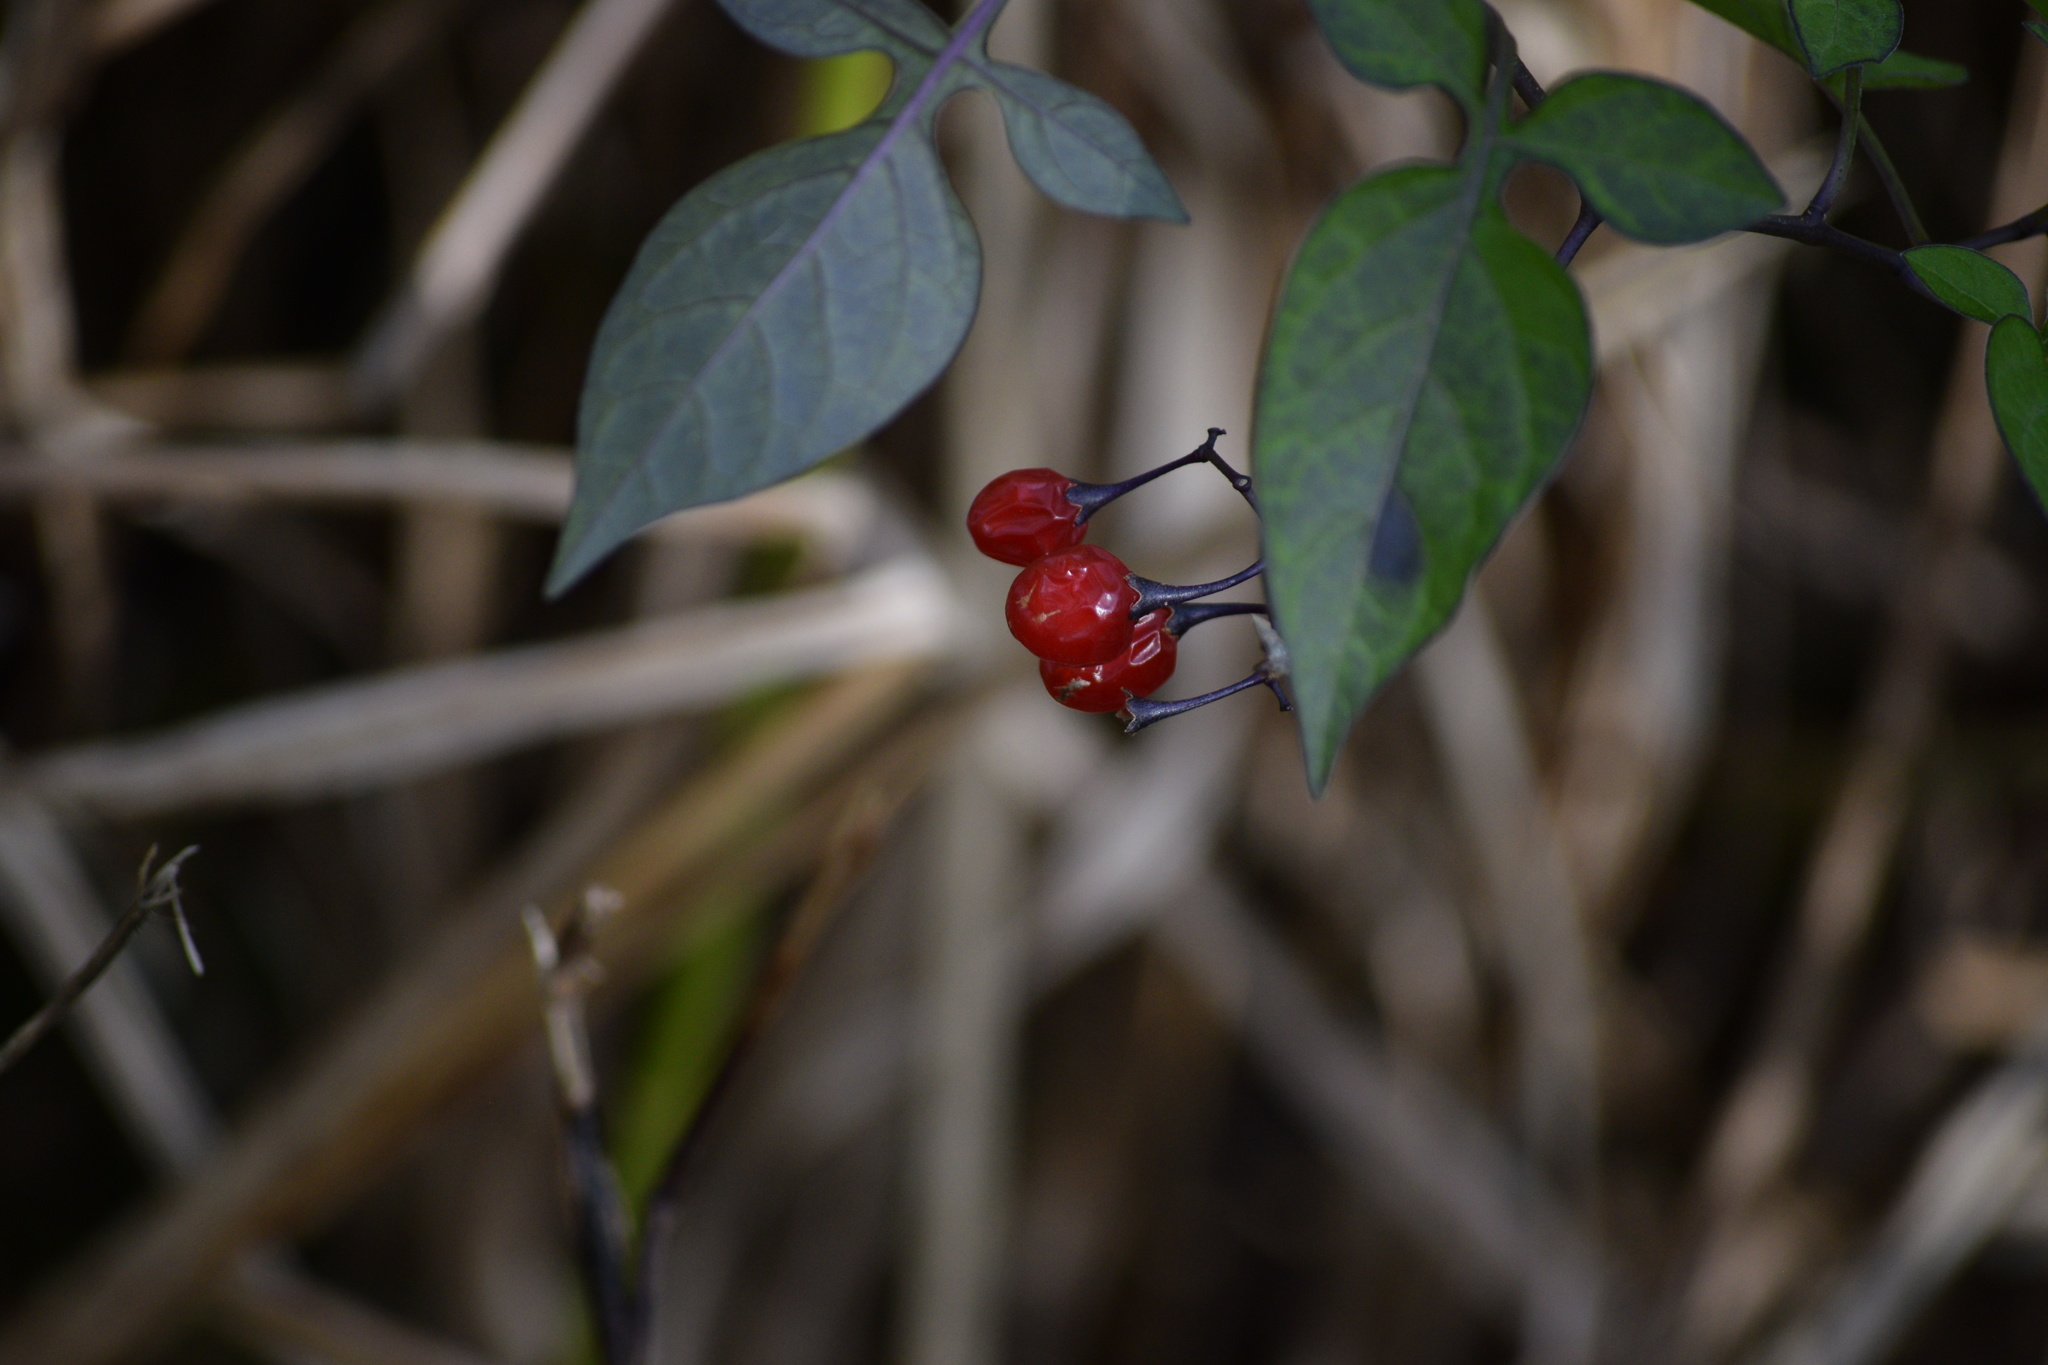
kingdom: Plantae
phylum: Tracheophyta
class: Magnoliopsida
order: Solanales
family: Solanaceae
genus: Solanum
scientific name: Solanum dulcamara
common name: Climbing nightshade
